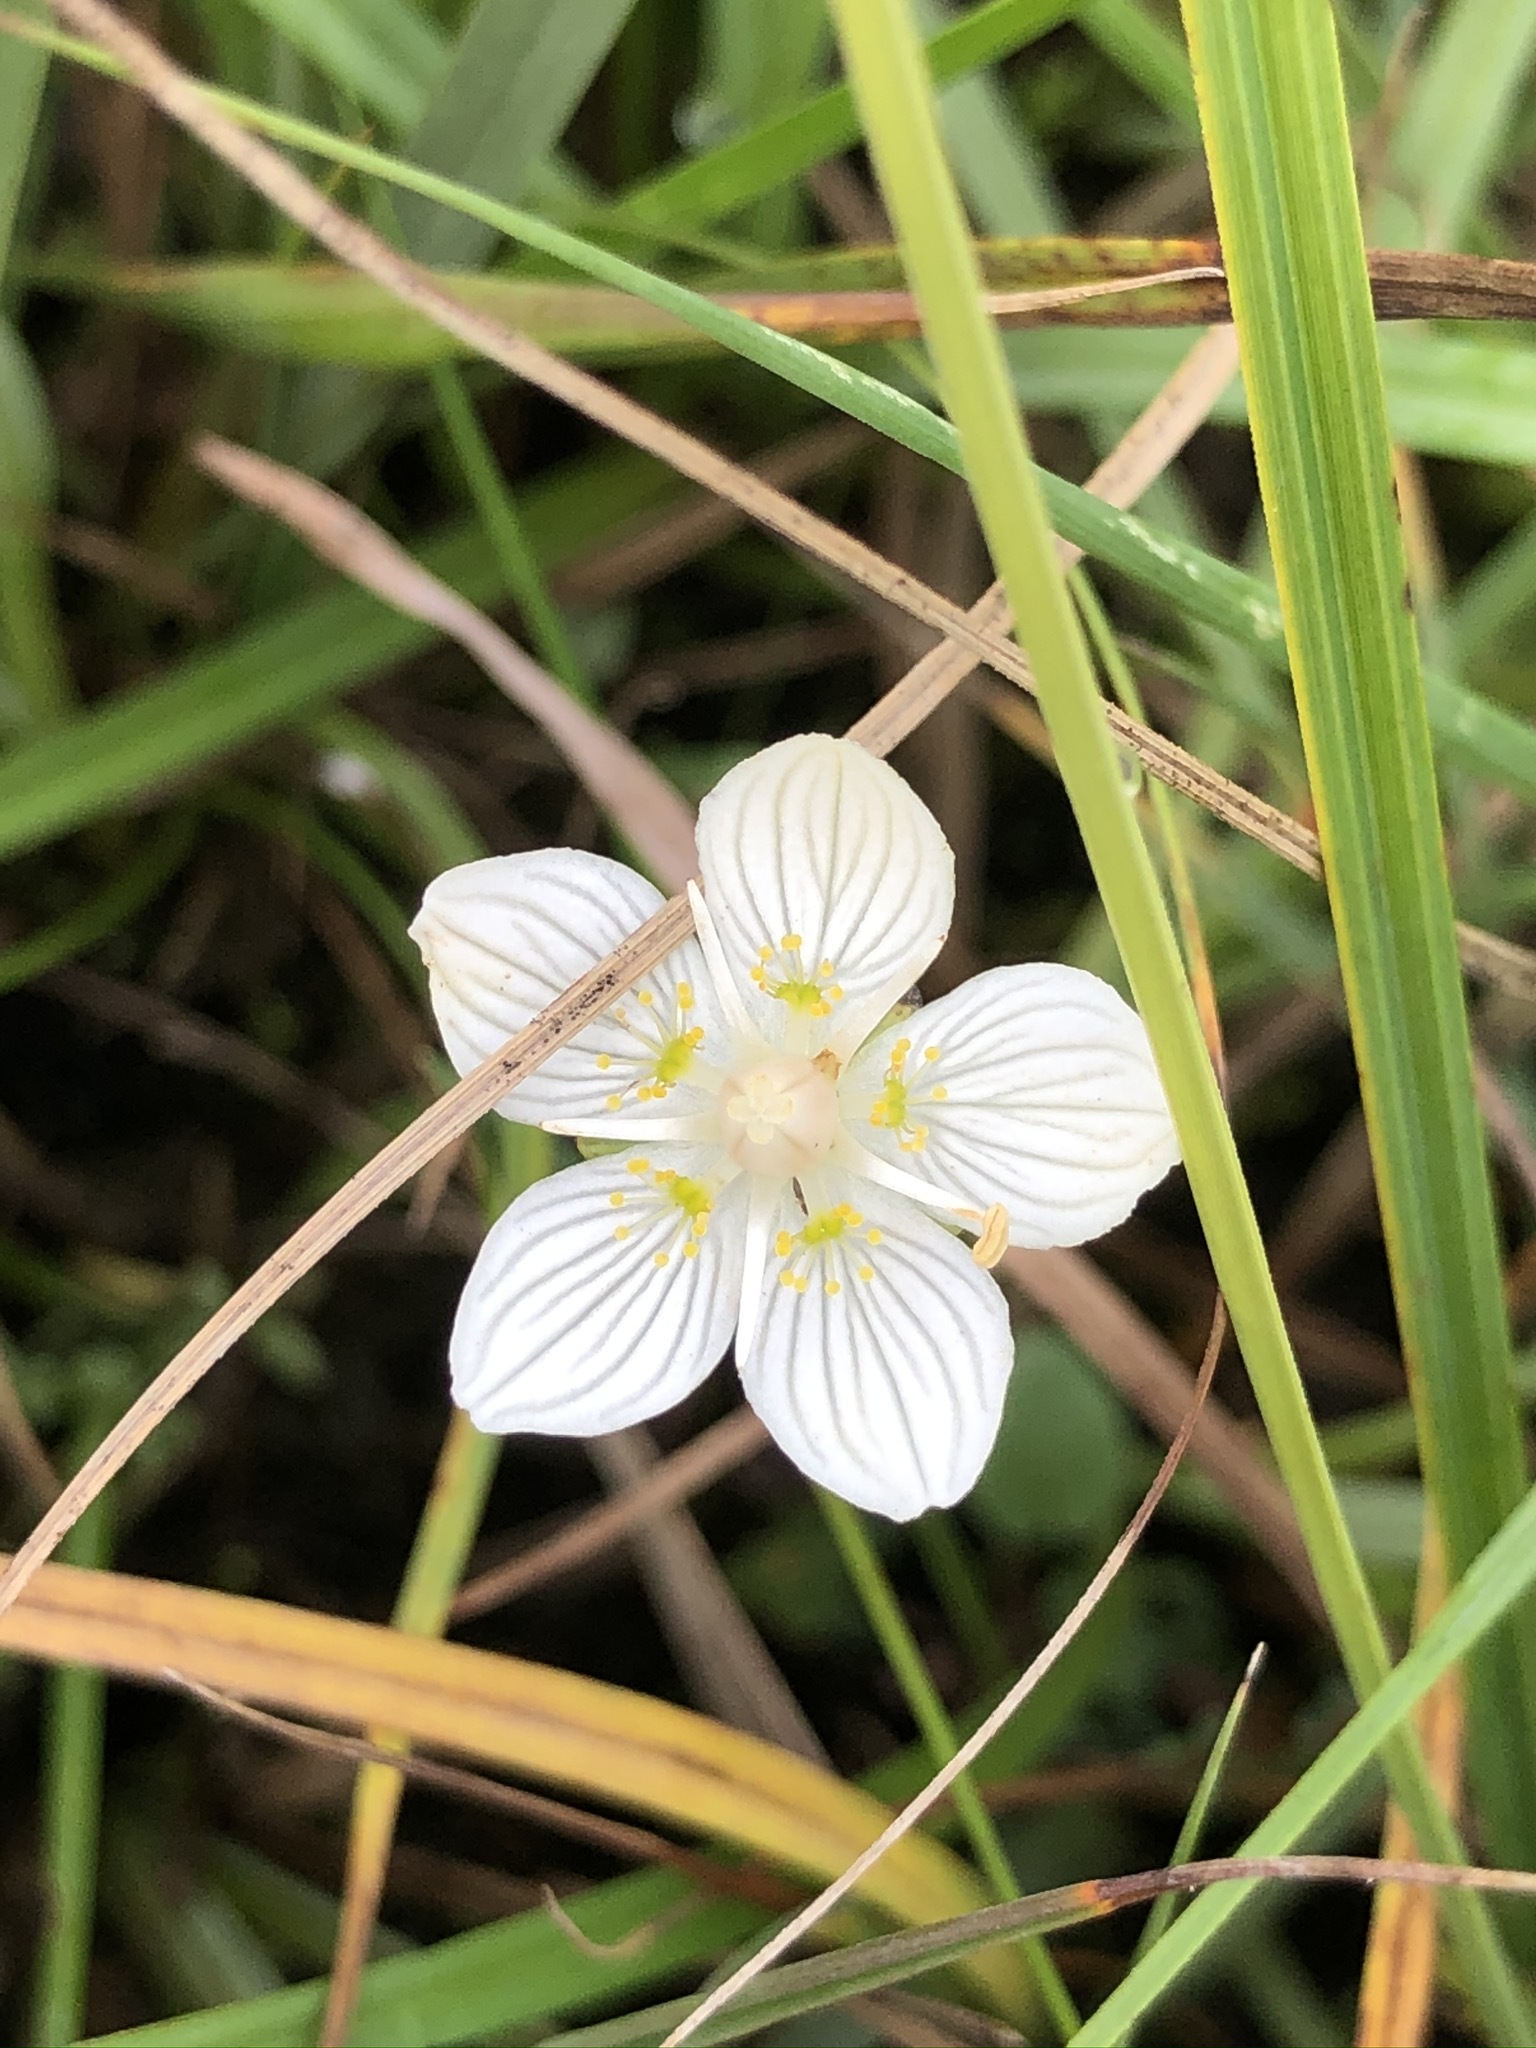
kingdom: Plantae
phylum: Tracheophyta
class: Magnoliopsida
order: Celastrales
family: Parnassiaceae
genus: Parnassia
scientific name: Parnassia palustris
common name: Grass-of-parnassus
